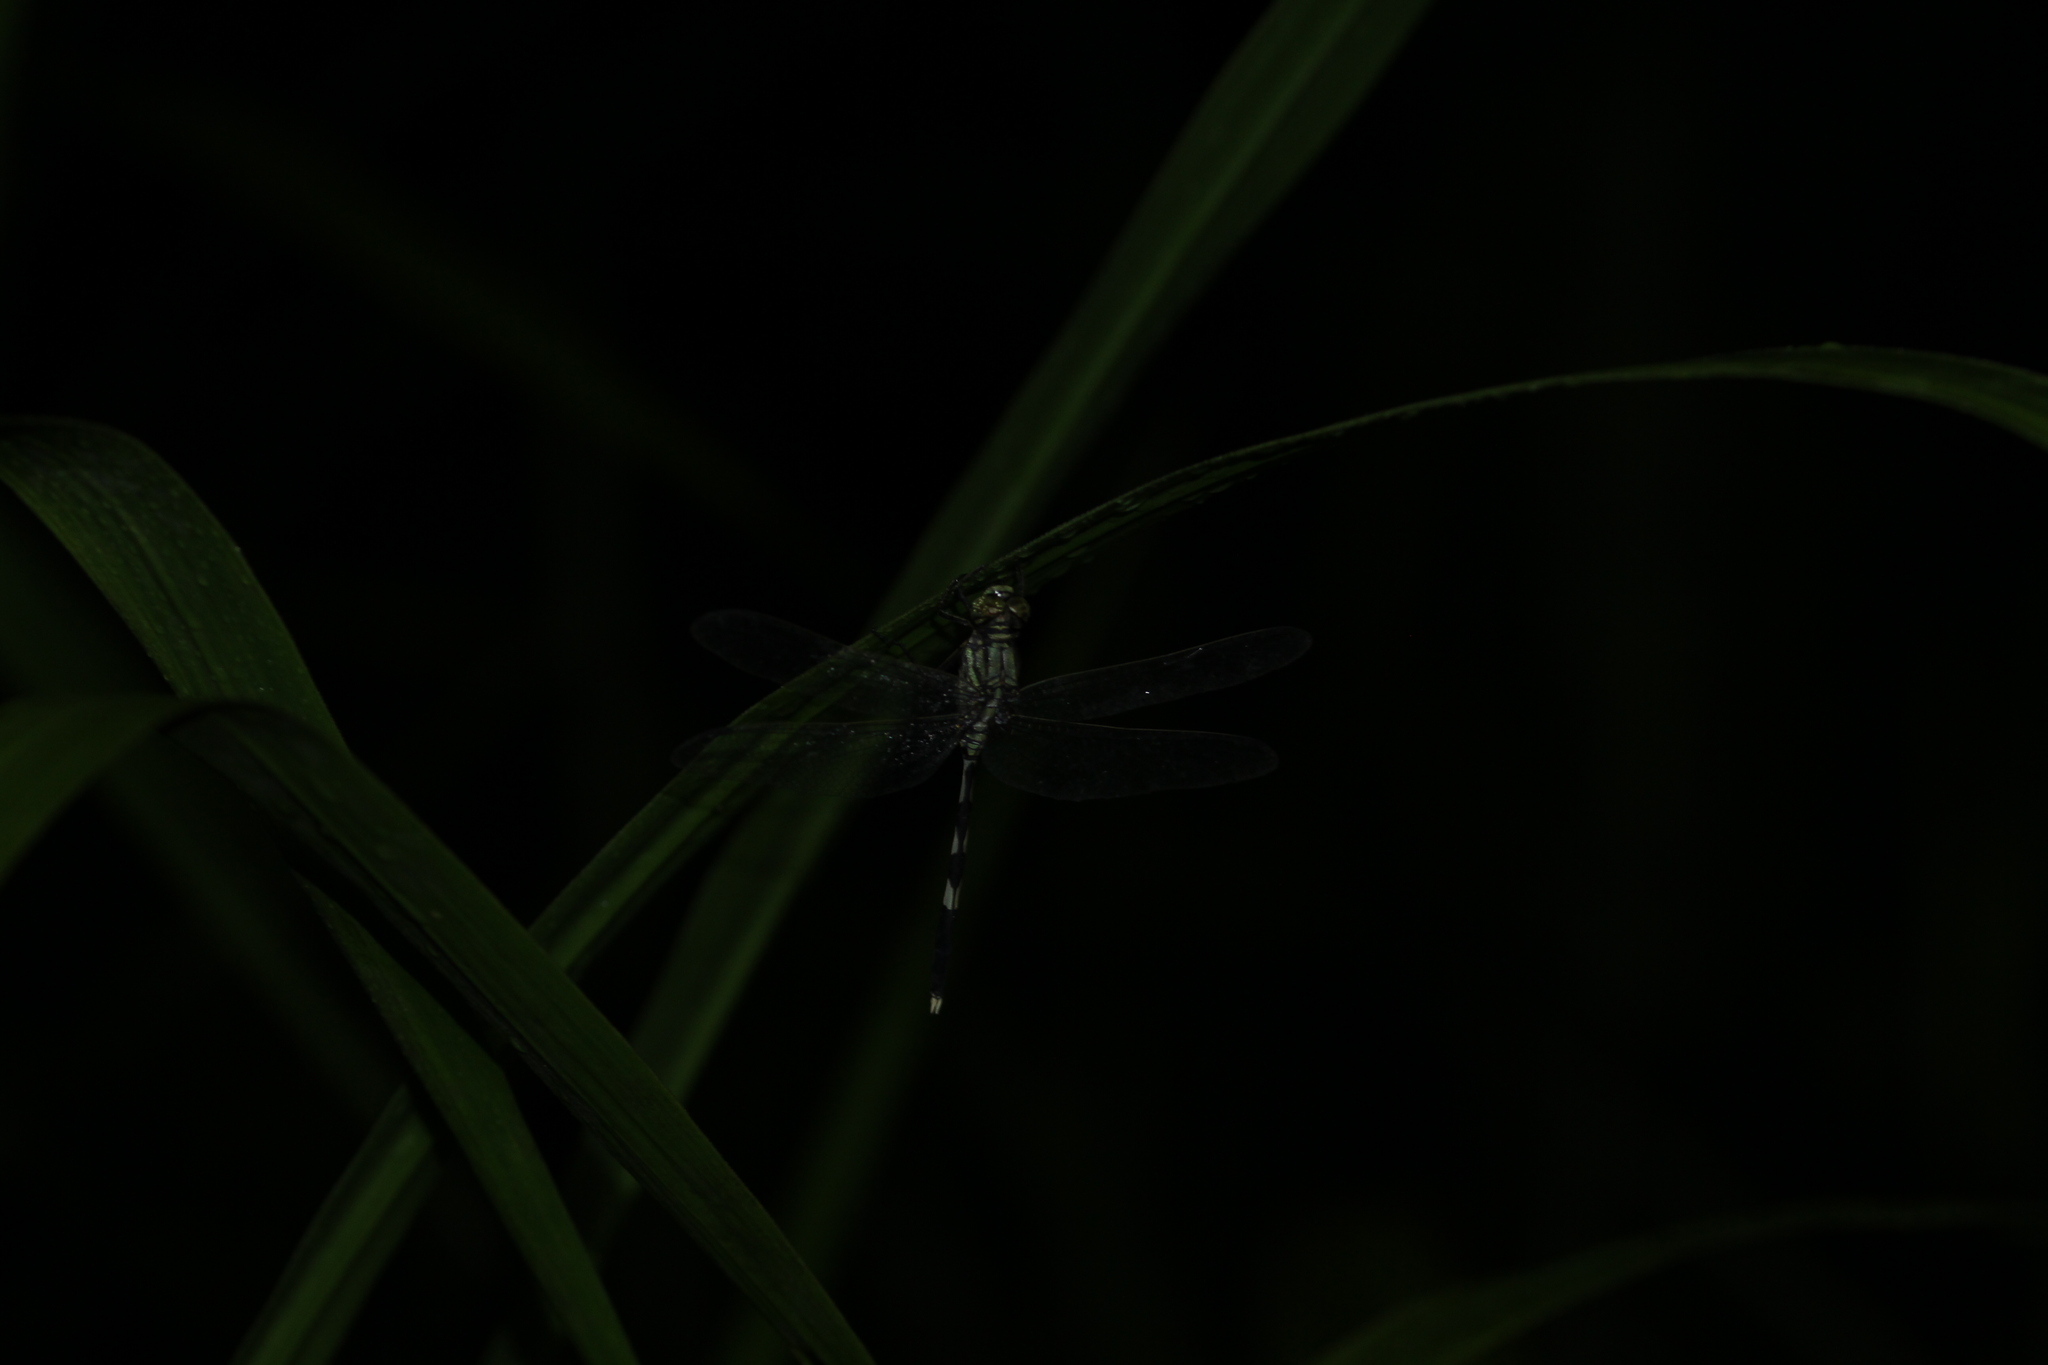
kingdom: Animalia
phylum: Arthropoda
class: Insecta
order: Odonata
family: Libellulidae
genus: Orthetrum
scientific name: Orthetrum sabina
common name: Slender skimmer
